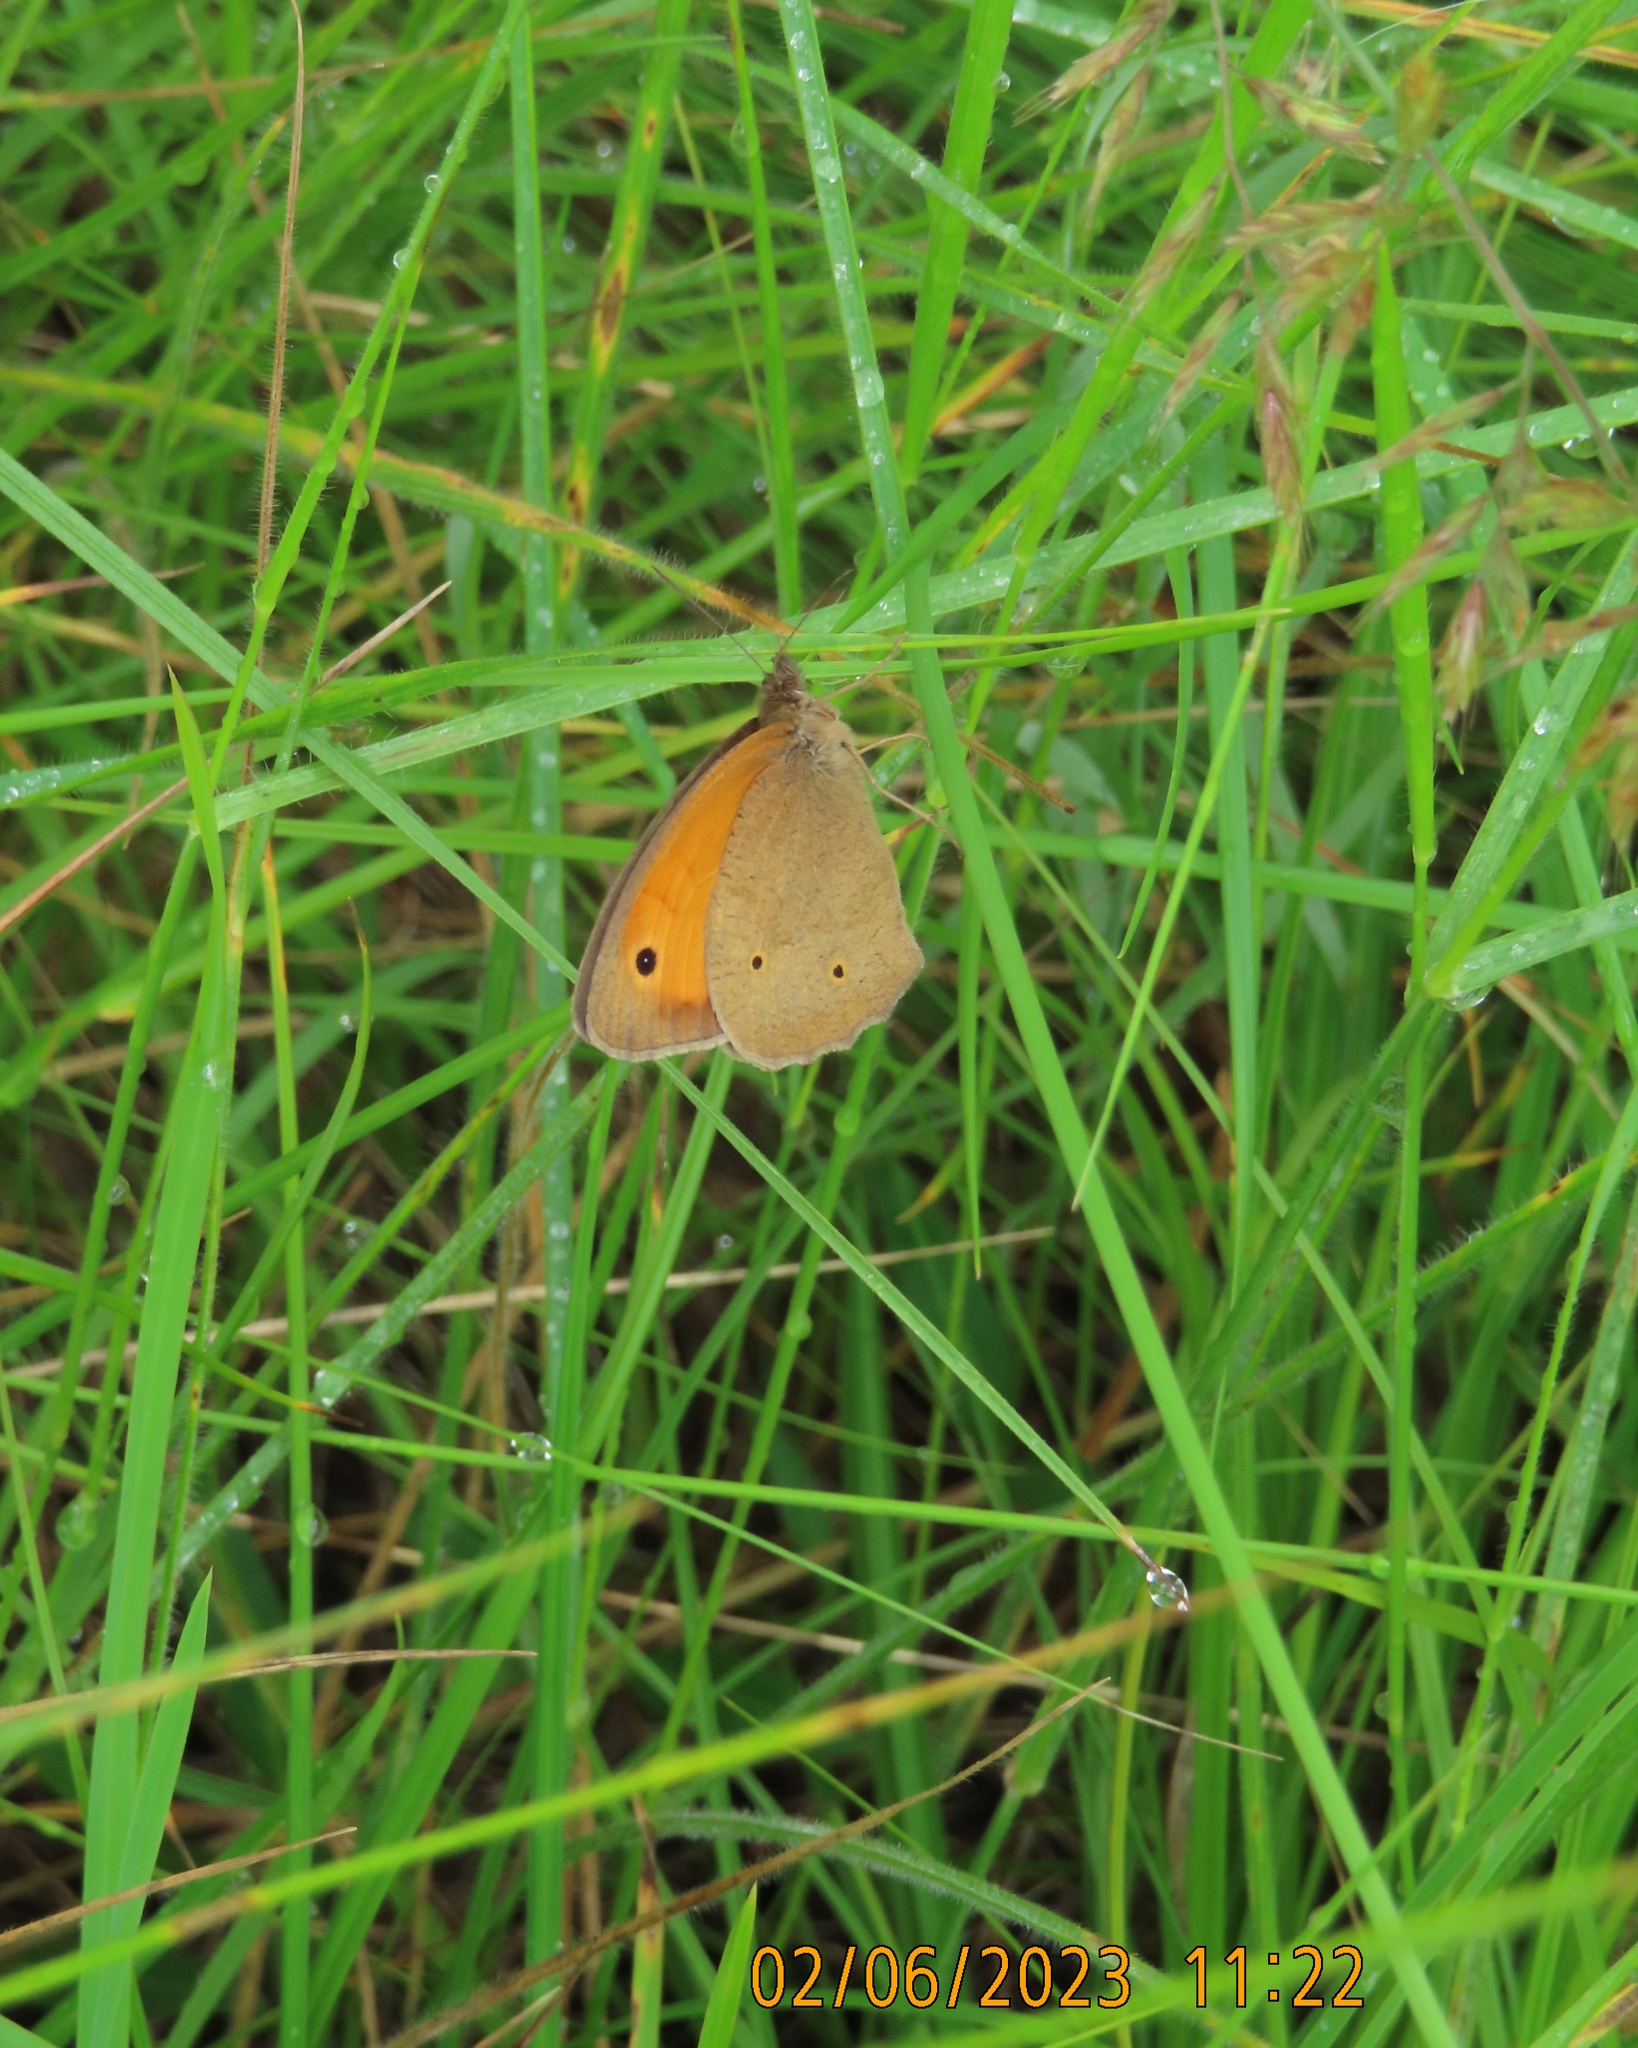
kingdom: Animalia
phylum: Arthropoda
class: Insecta
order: Lepidoptera
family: Nymphalidae
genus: Maniola
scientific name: Maniola jurtina
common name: Meadow brown
